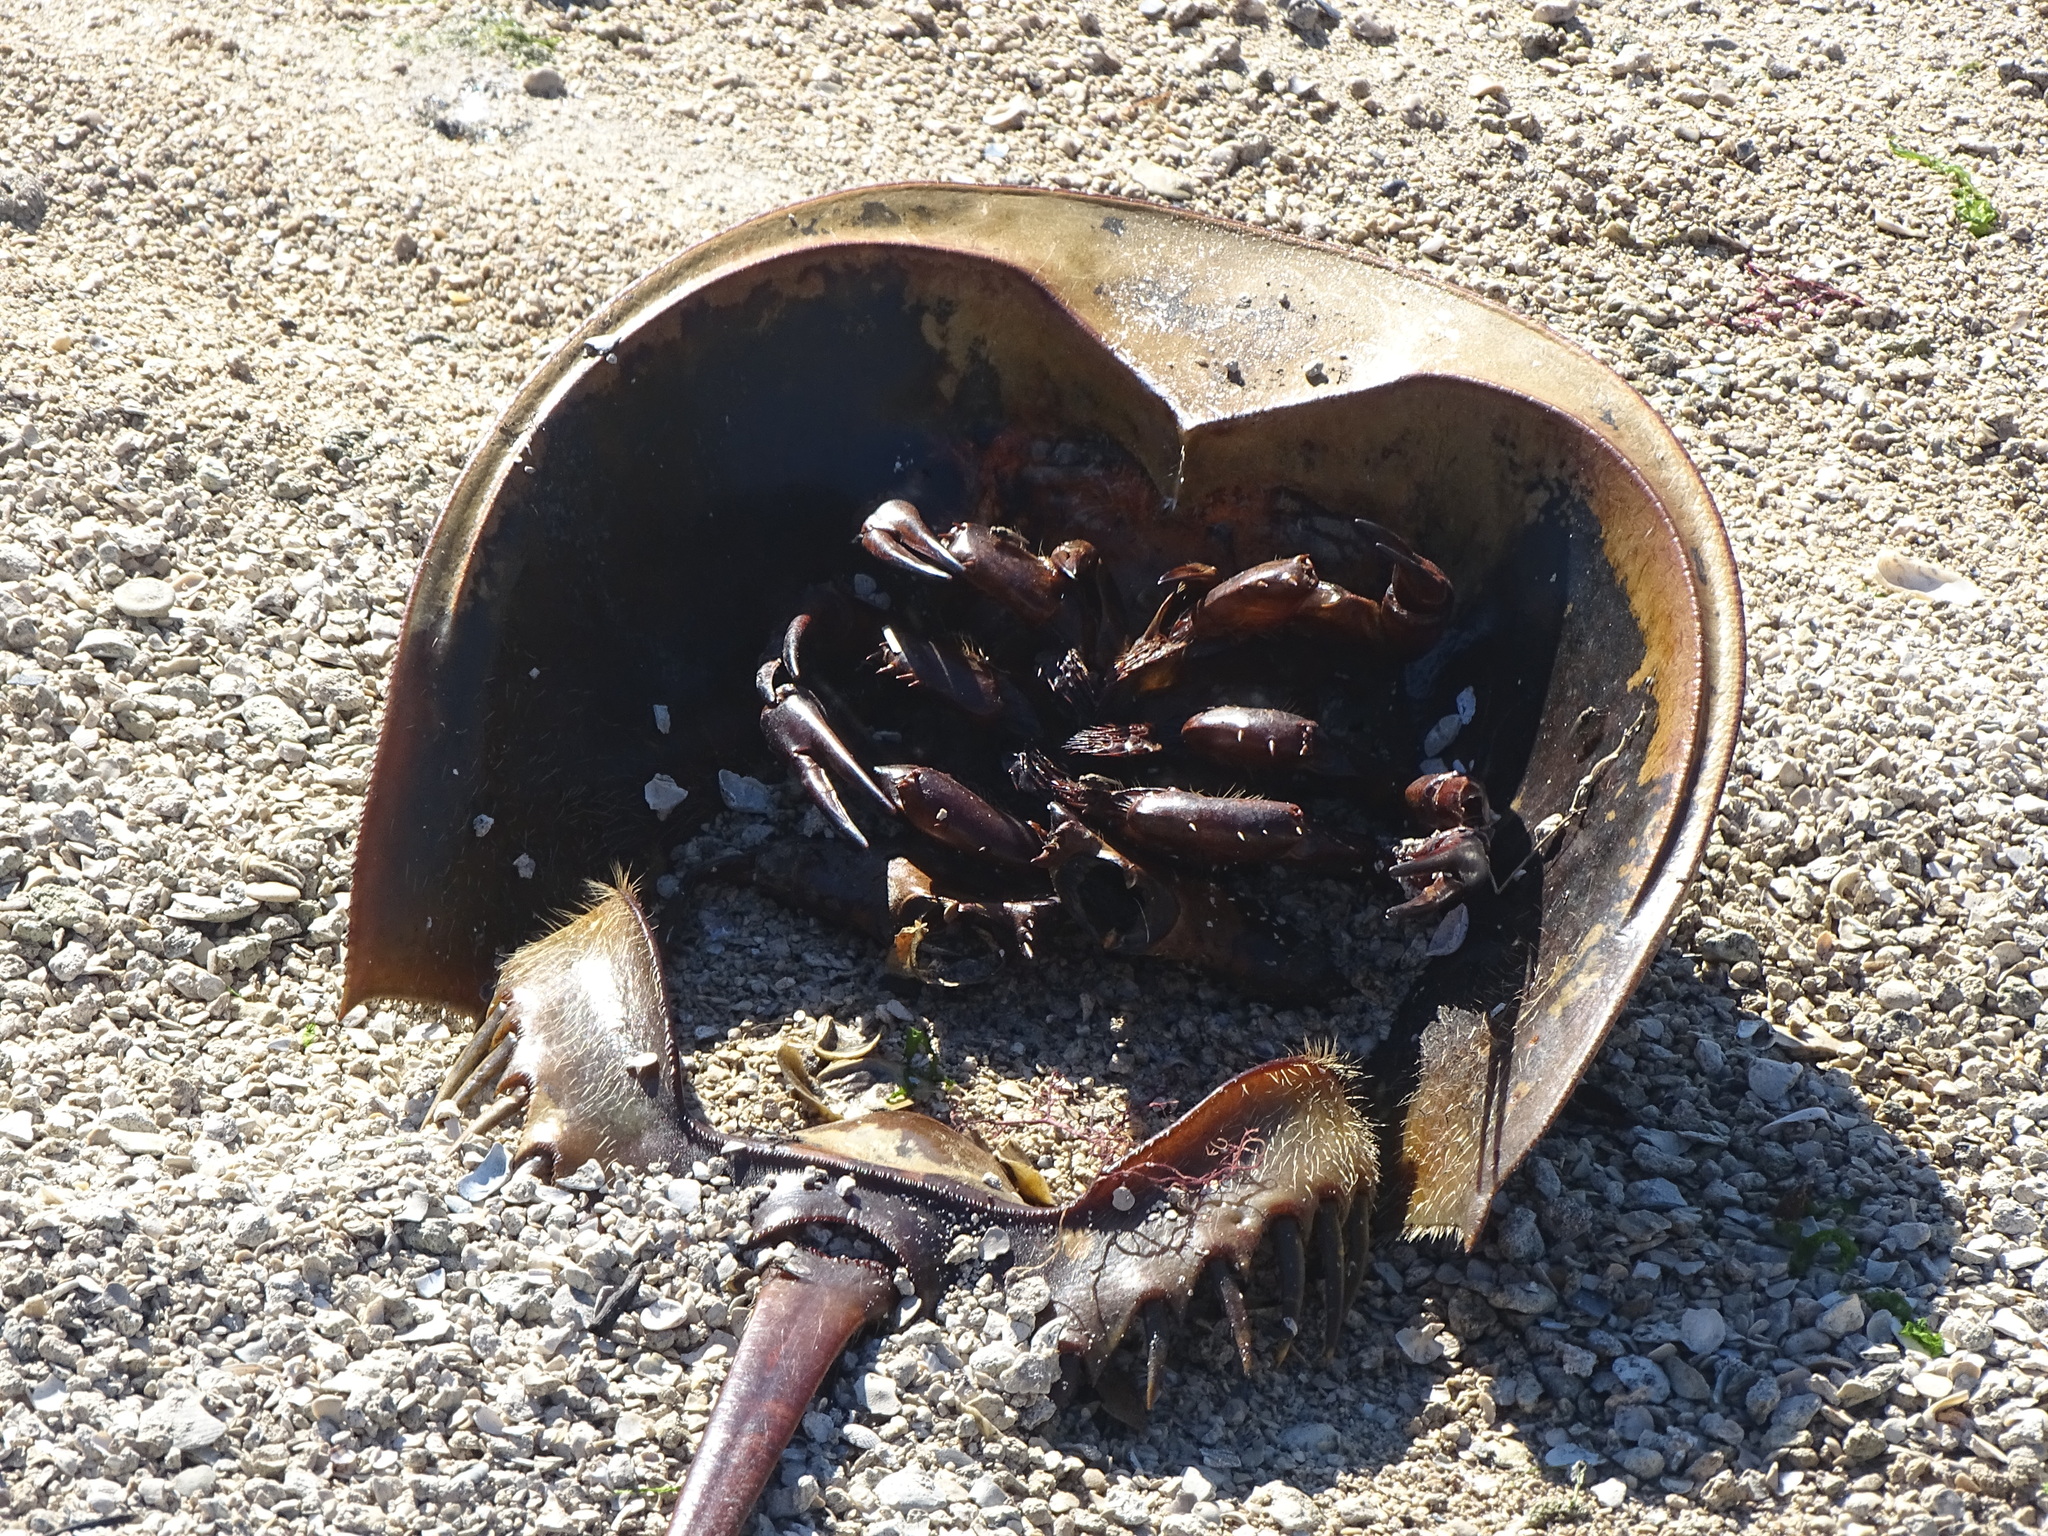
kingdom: Animalia
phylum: Arthropoda
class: Merostomata
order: Xiphosurida
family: Limulidae
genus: Limulus
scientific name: Limulus polyphemus
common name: Horseshoe crab
